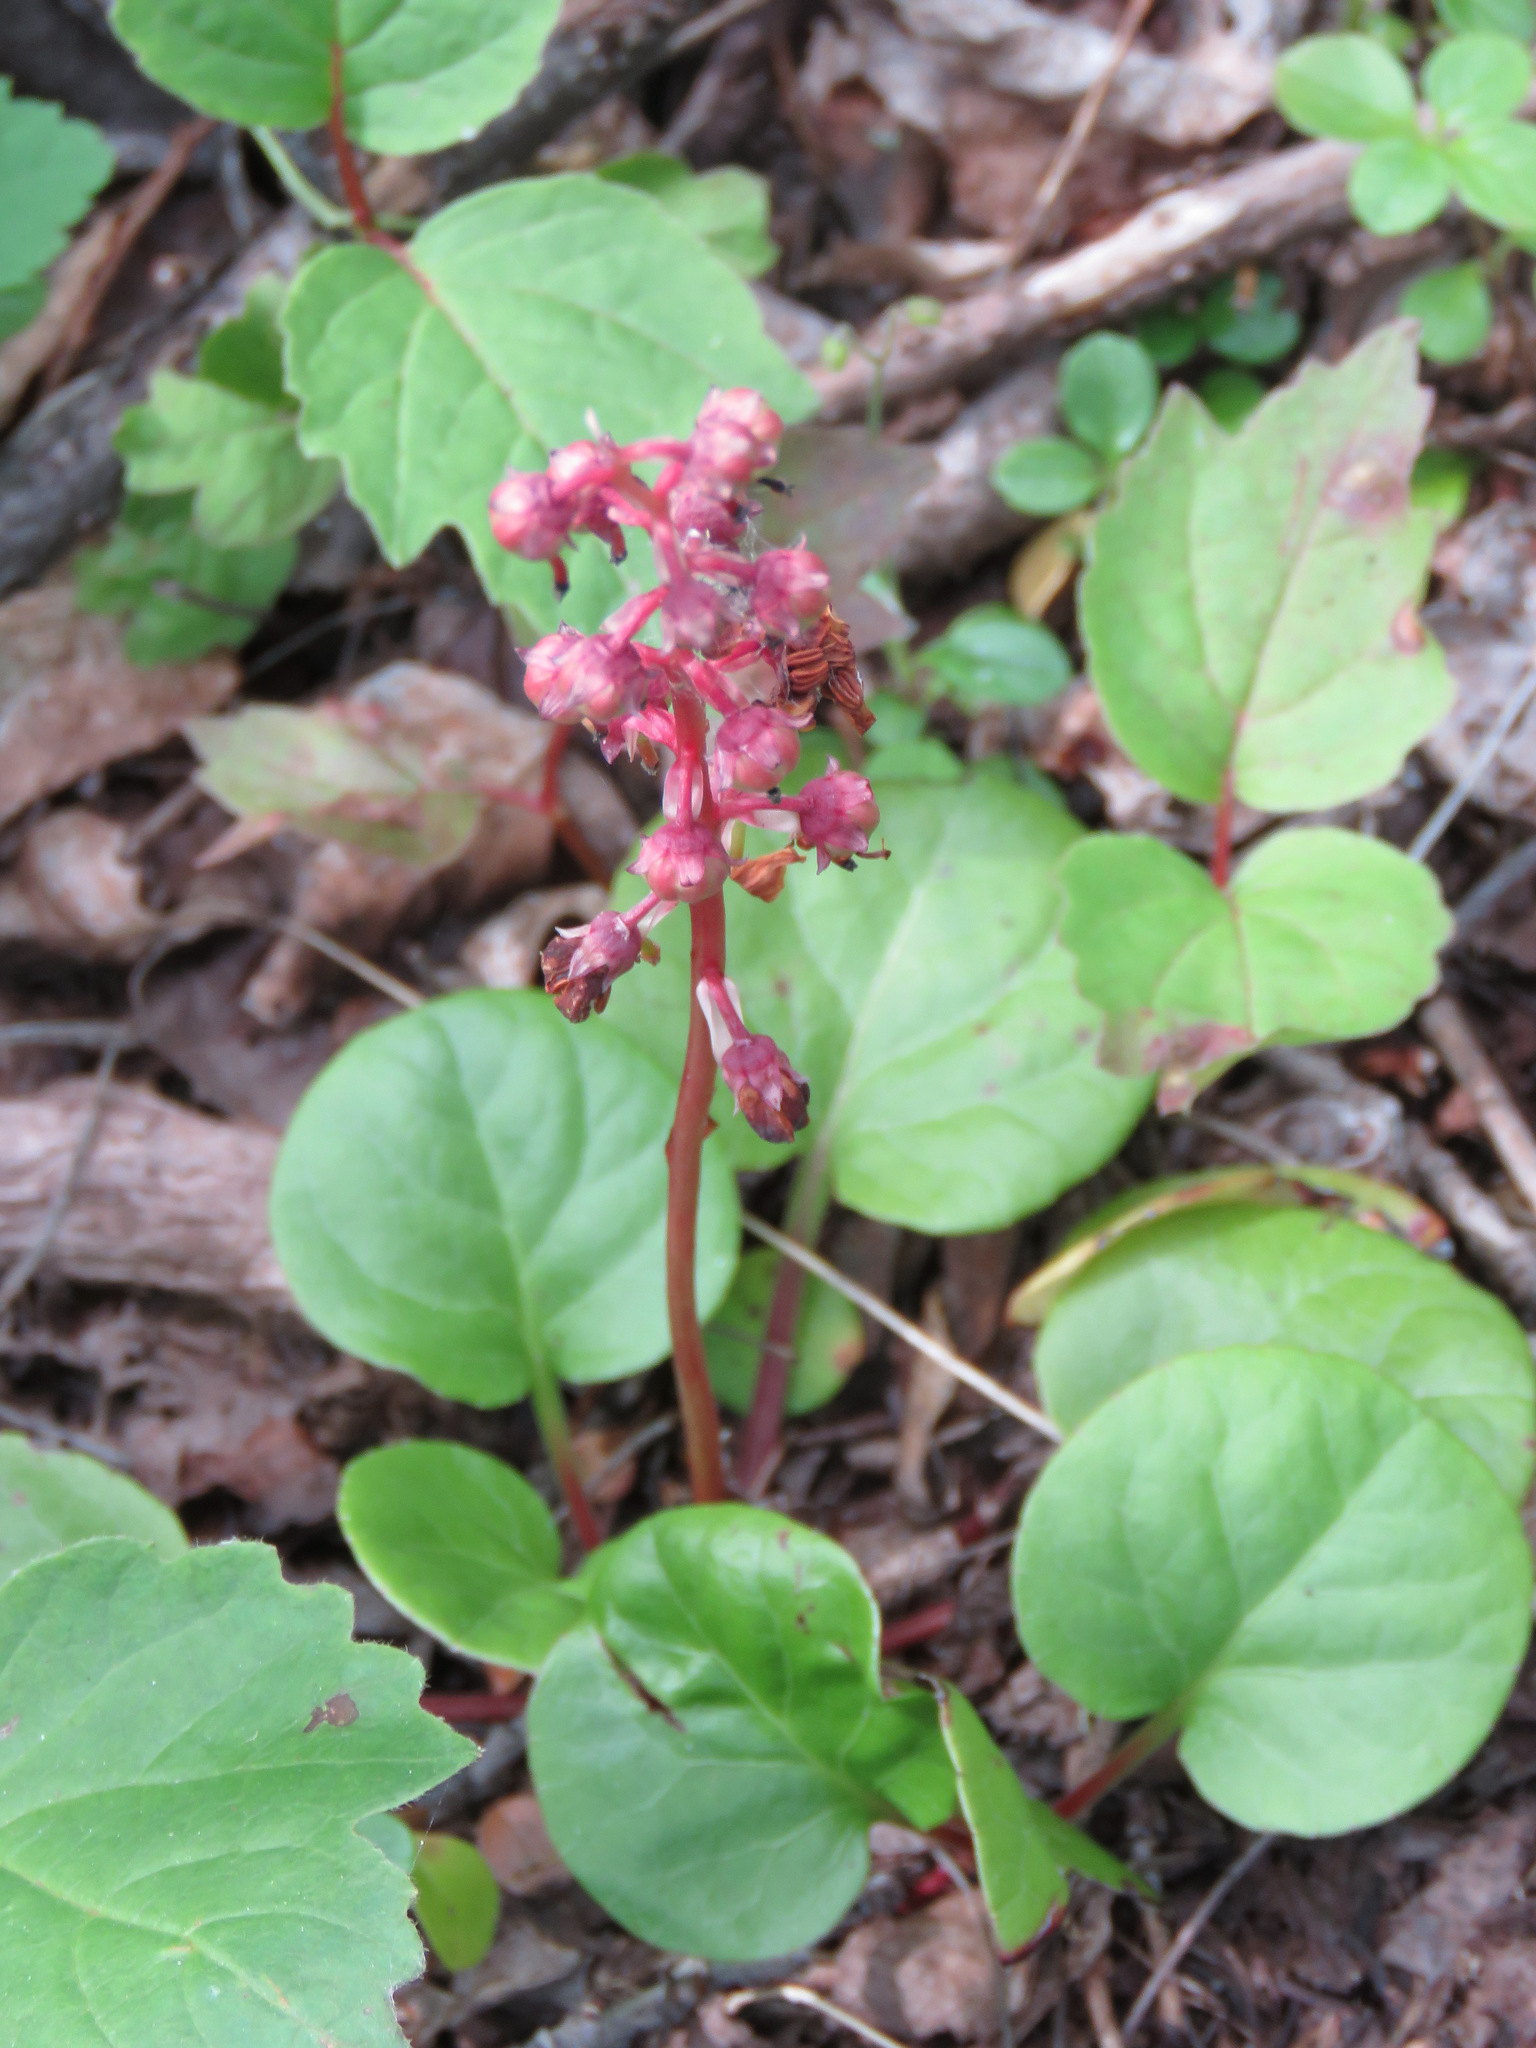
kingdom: Plantae
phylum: Tracheophyta
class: Magnoliopsida
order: Ericales
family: Ericaceae
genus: Pyrola
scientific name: Pyrola asarifolia
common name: Bog wintergreen
